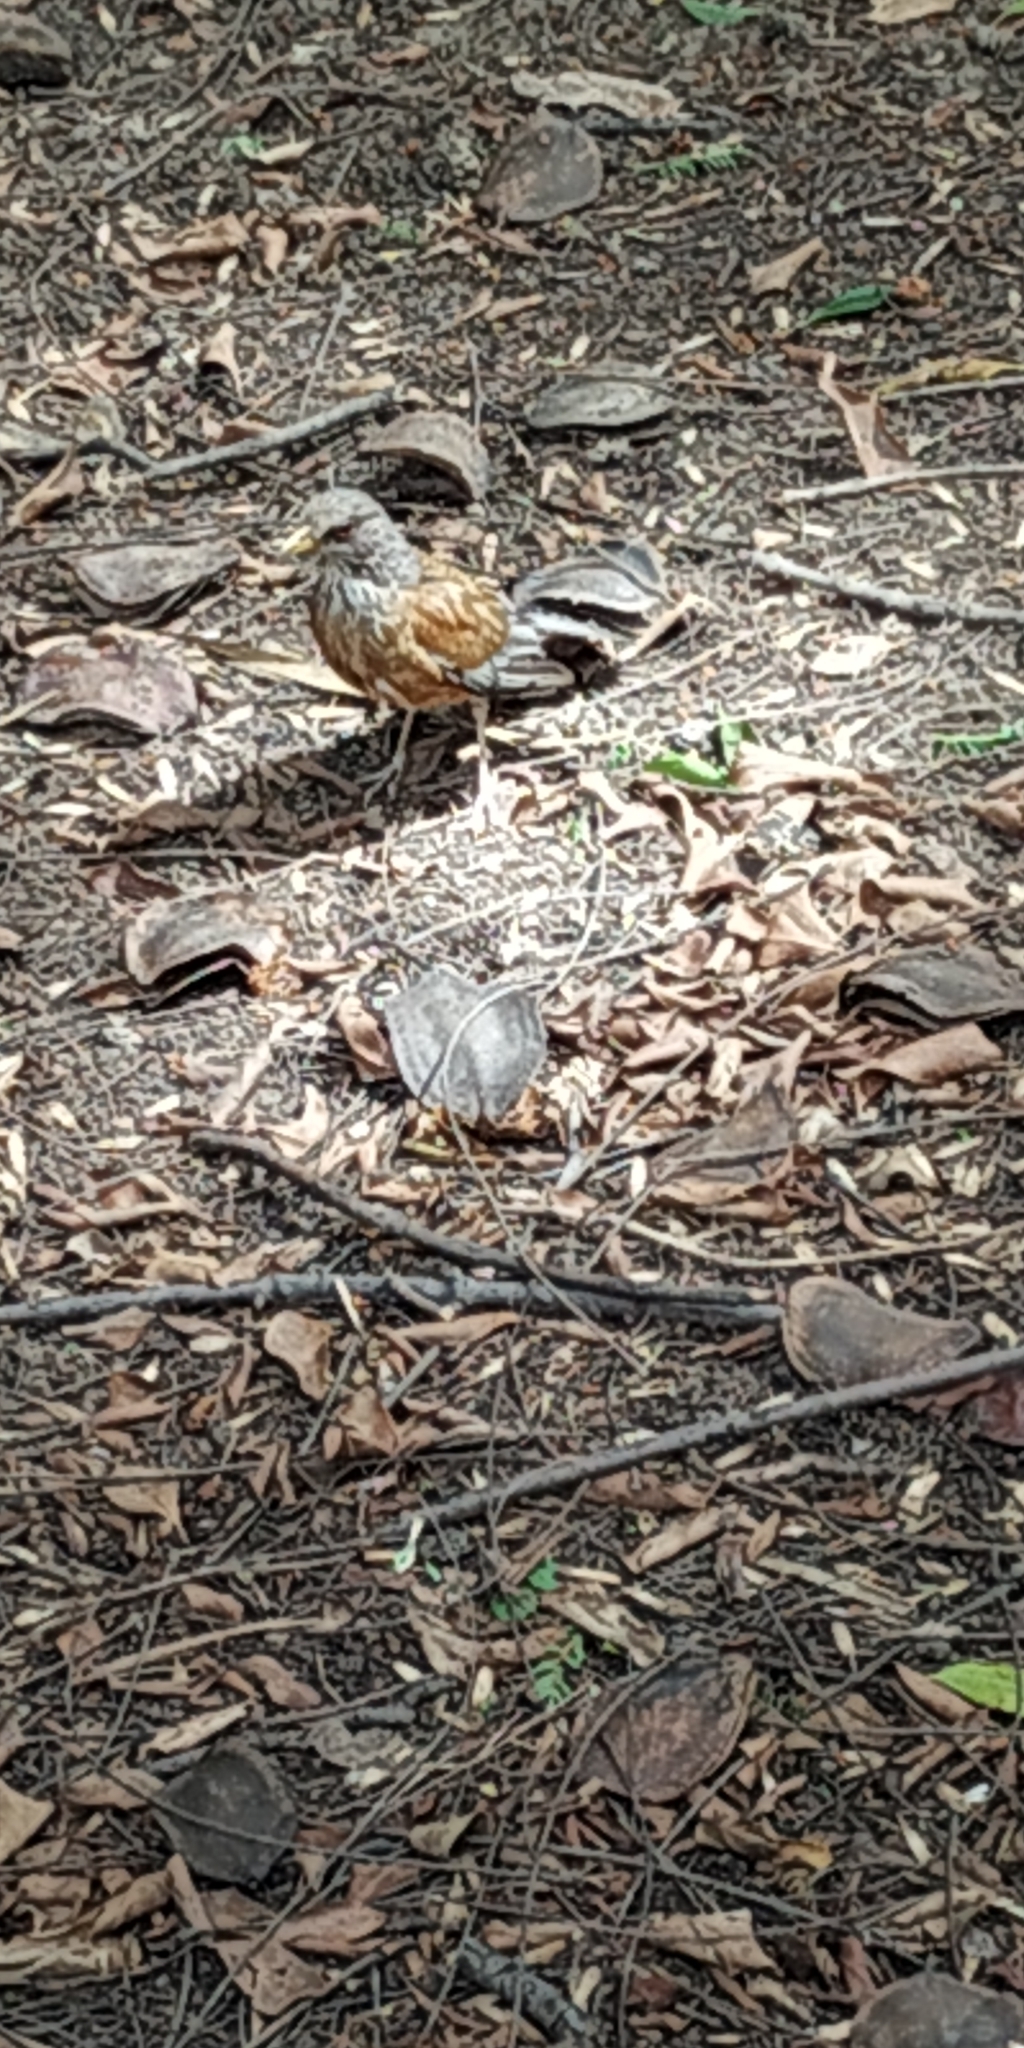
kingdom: Animalia
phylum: Chordata
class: Aves
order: Passeriformes
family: Turdidae
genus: Turdus
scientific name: Turdus rufopalliatus
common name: Rufous-backed robin
